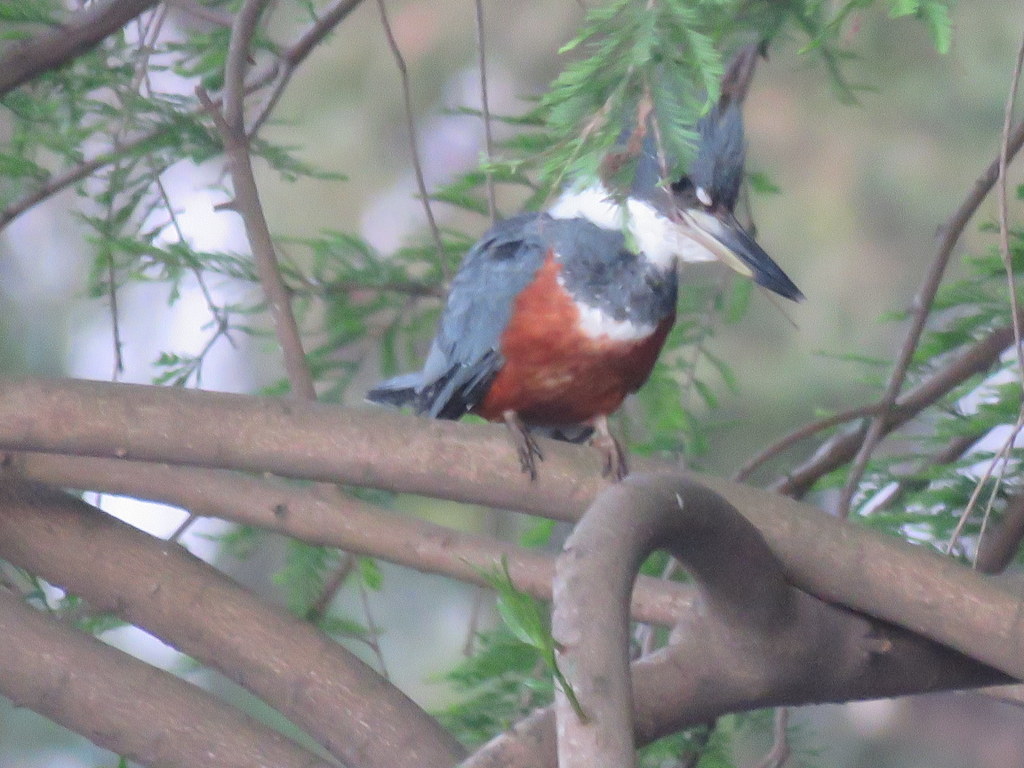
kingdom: Animalia
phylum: Chordata
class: Aves
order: Coraciiformes
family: Alcedinidae
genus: Megaceryle
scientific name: Megaceryle torquata
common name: Ringed kingfisher
